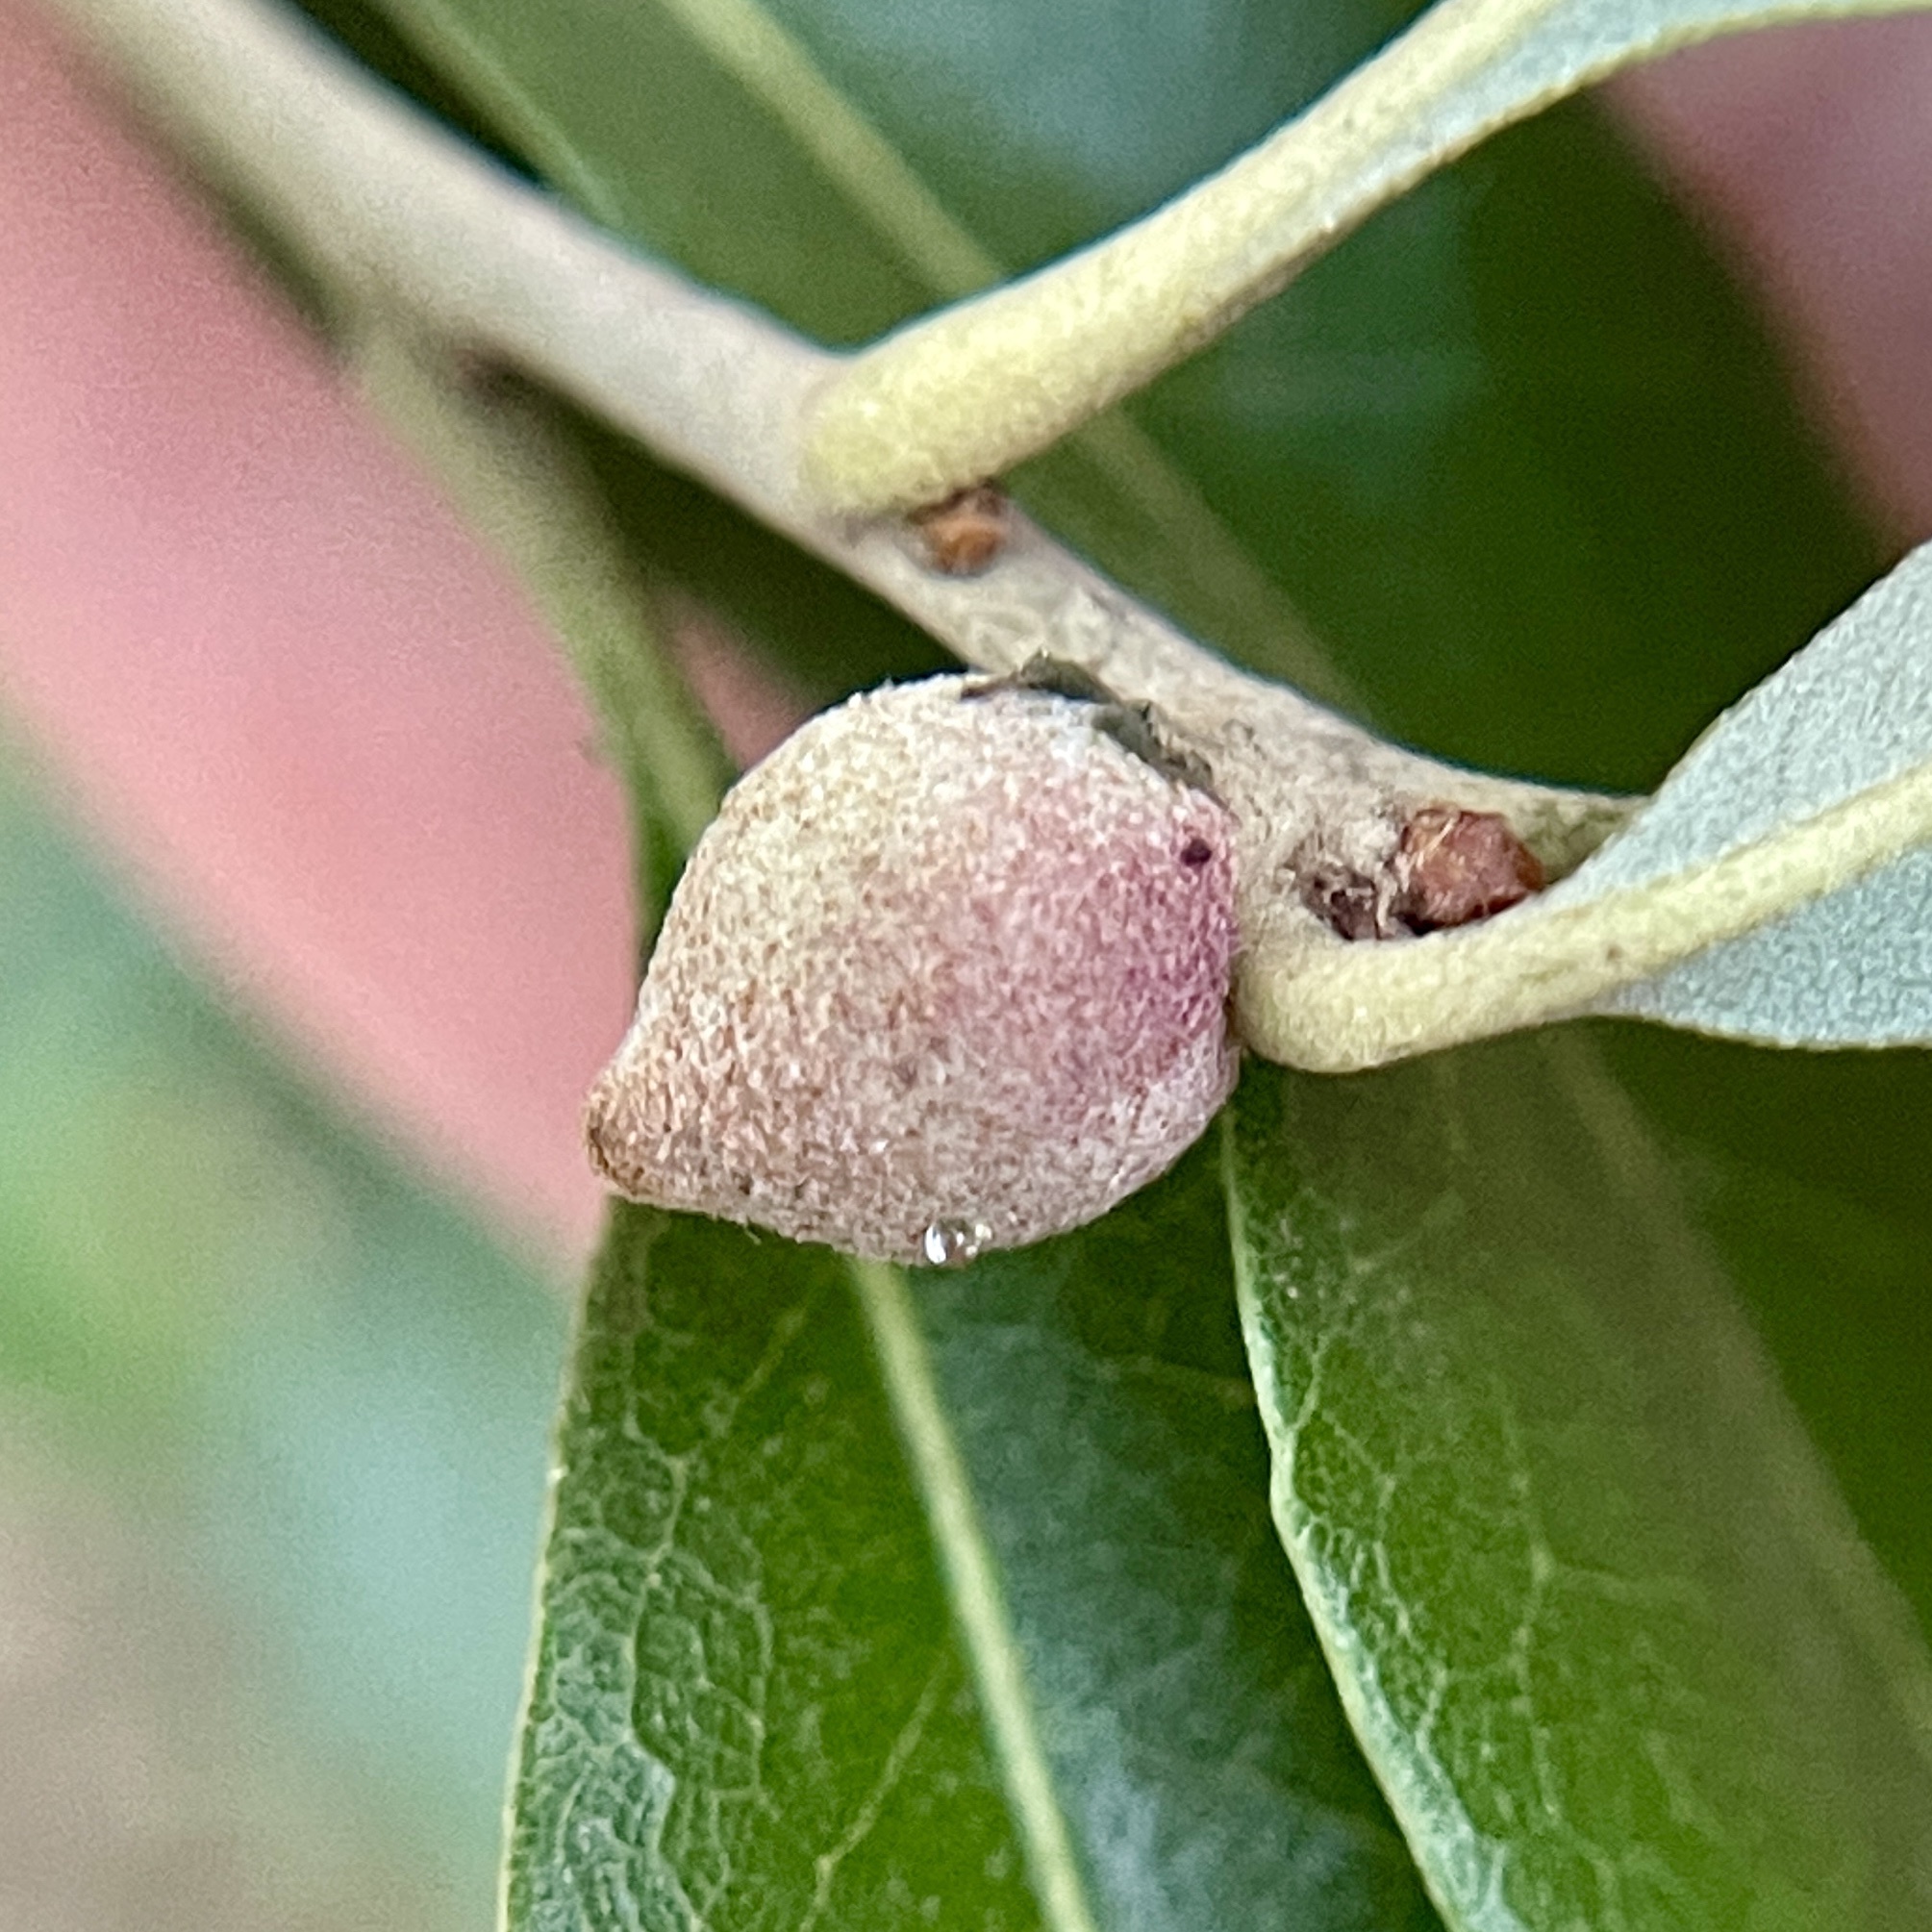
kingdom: Animalia
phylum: Arthropoda
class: Insecta
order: Hymenoptera
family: Cynipidae
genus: Disholcaspis
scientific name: Disholcaspis
